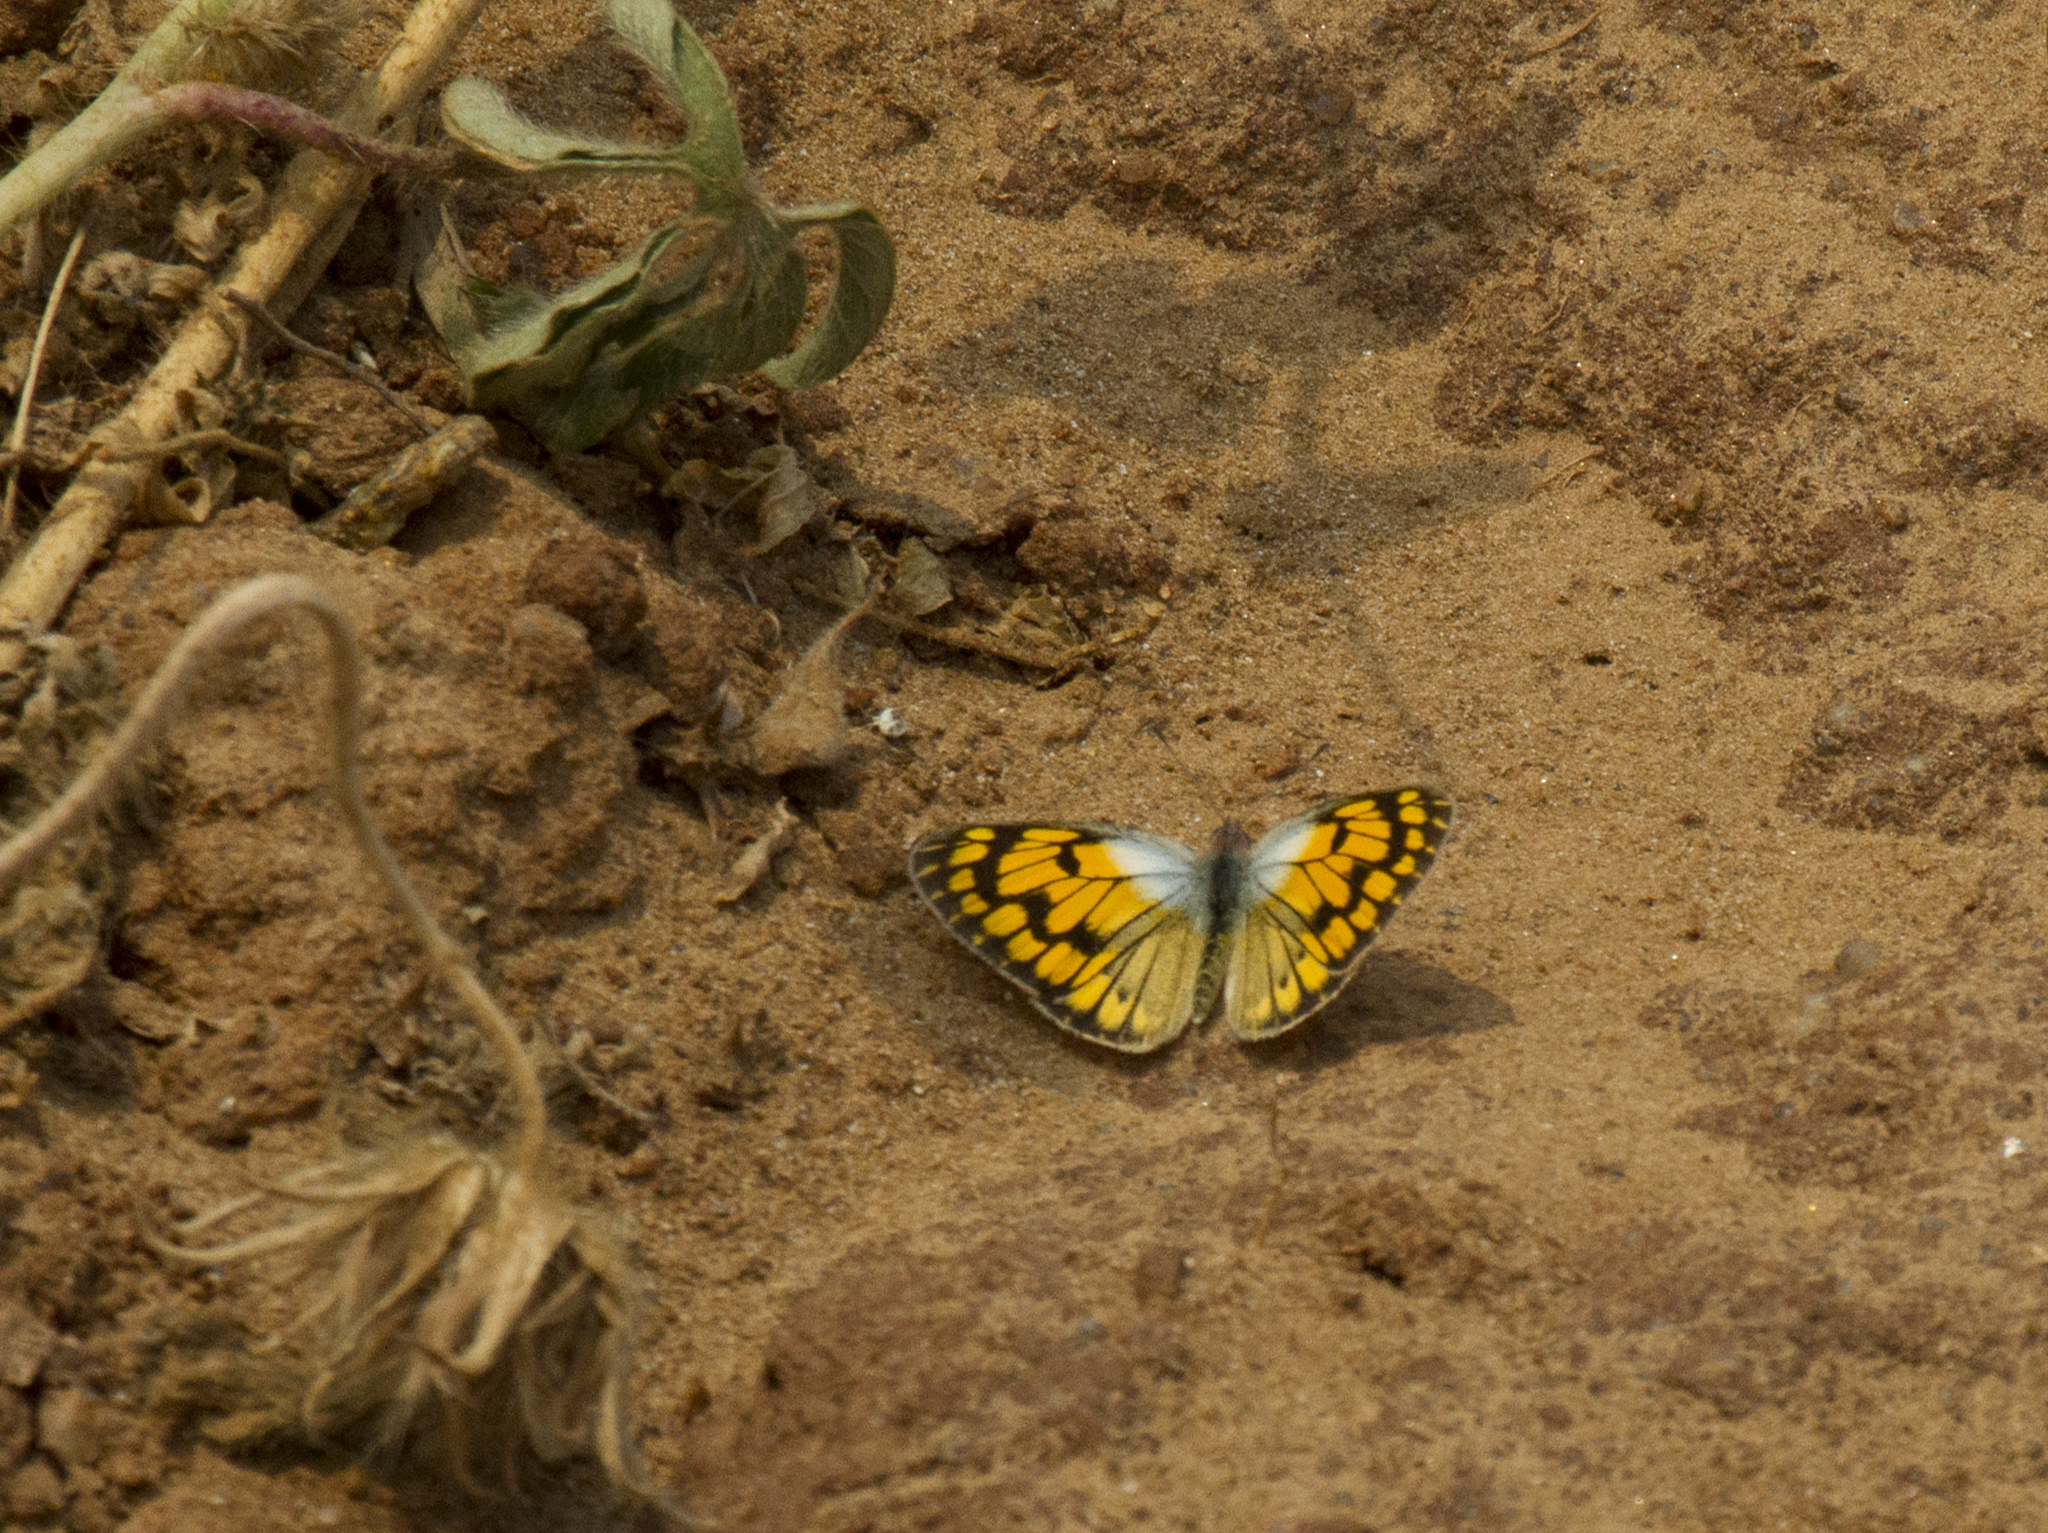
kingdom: Animalia
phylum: Arthropoda
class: Insecta
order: Lepidoptera
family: Pieridae
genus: Colotis
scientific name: Colotis aurigineus
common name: African golden arab
